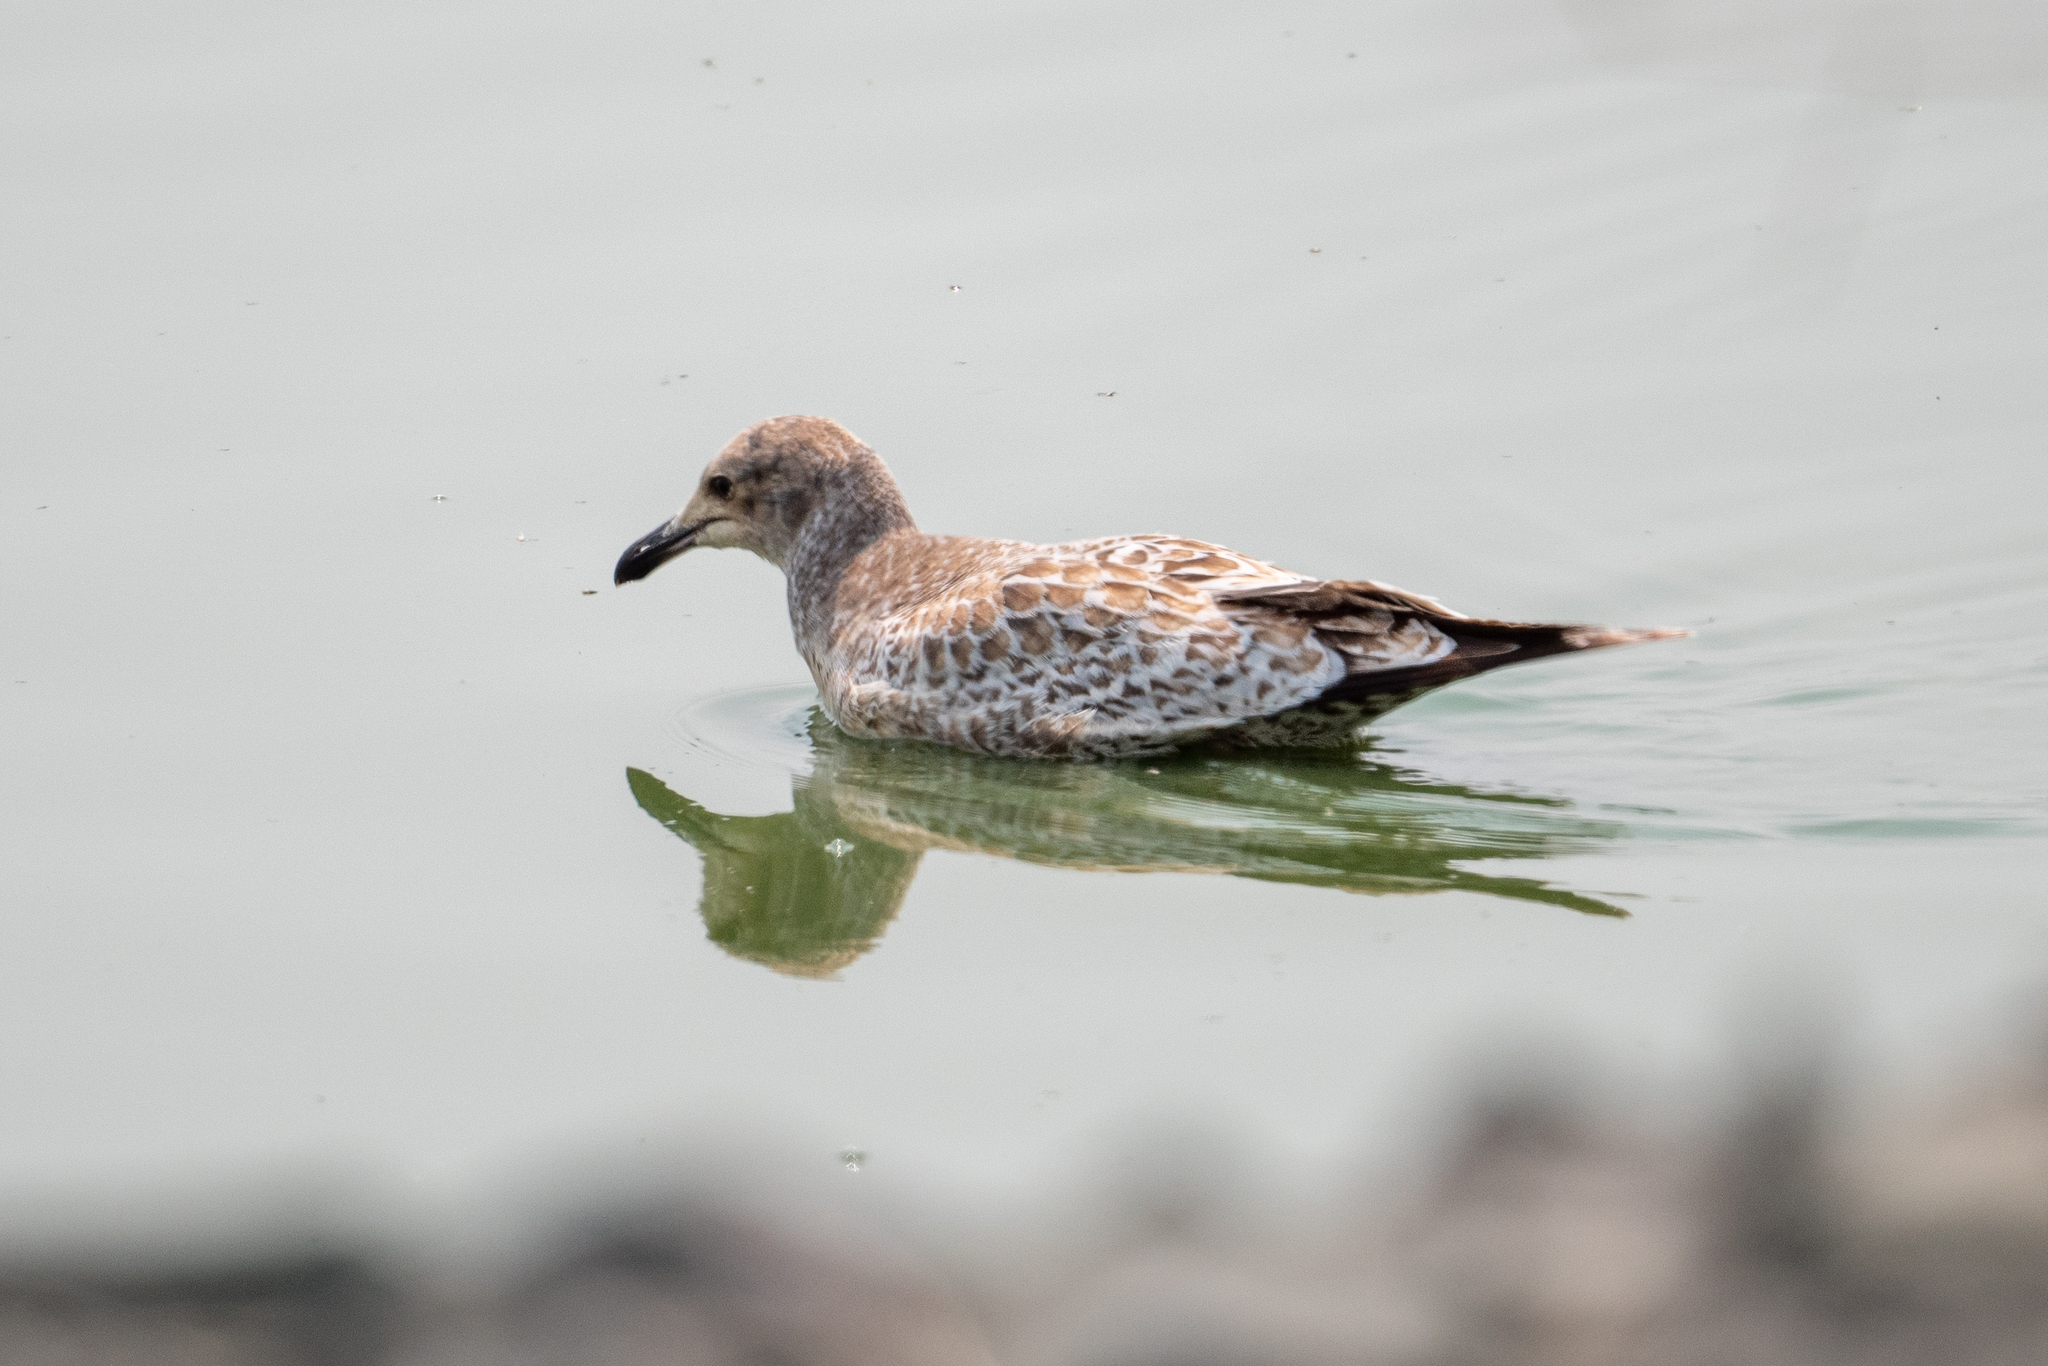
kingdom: Animalia
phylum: Chordata
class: Aves
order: Charadriiformes
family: Laridae
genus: Larus
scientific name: Larus californicus
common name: California gull
